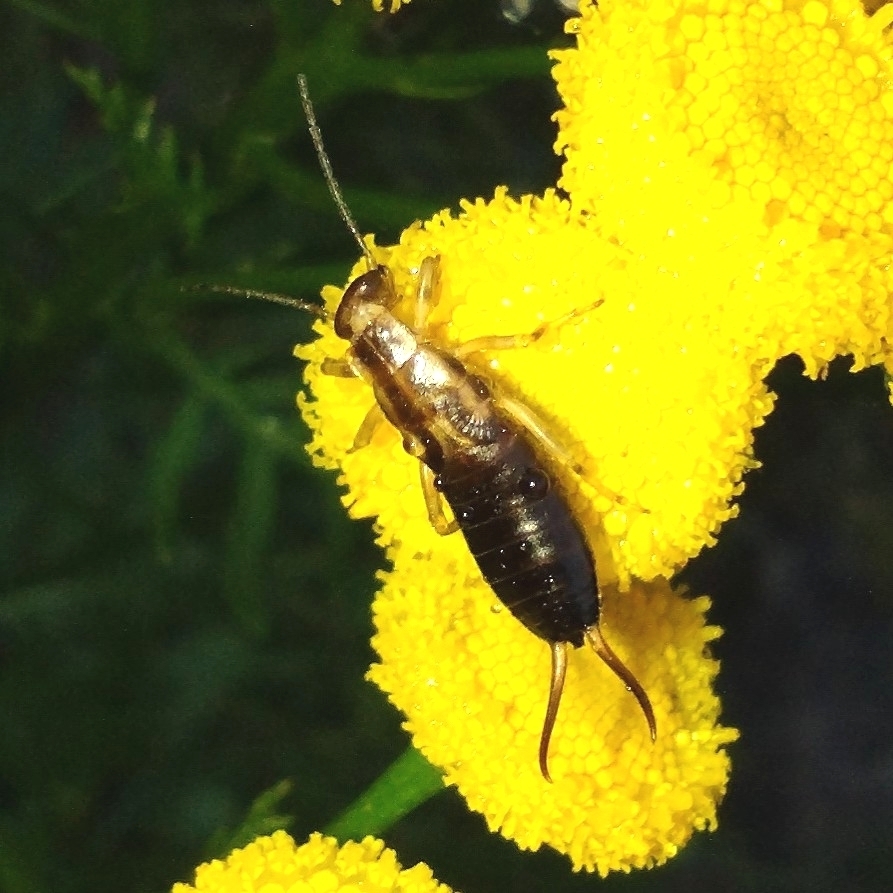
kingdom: Animalia
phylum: Arthropoda
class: Insecta
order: Dermaptera
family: Forficulidae
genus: Forficula
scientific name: Forficula
